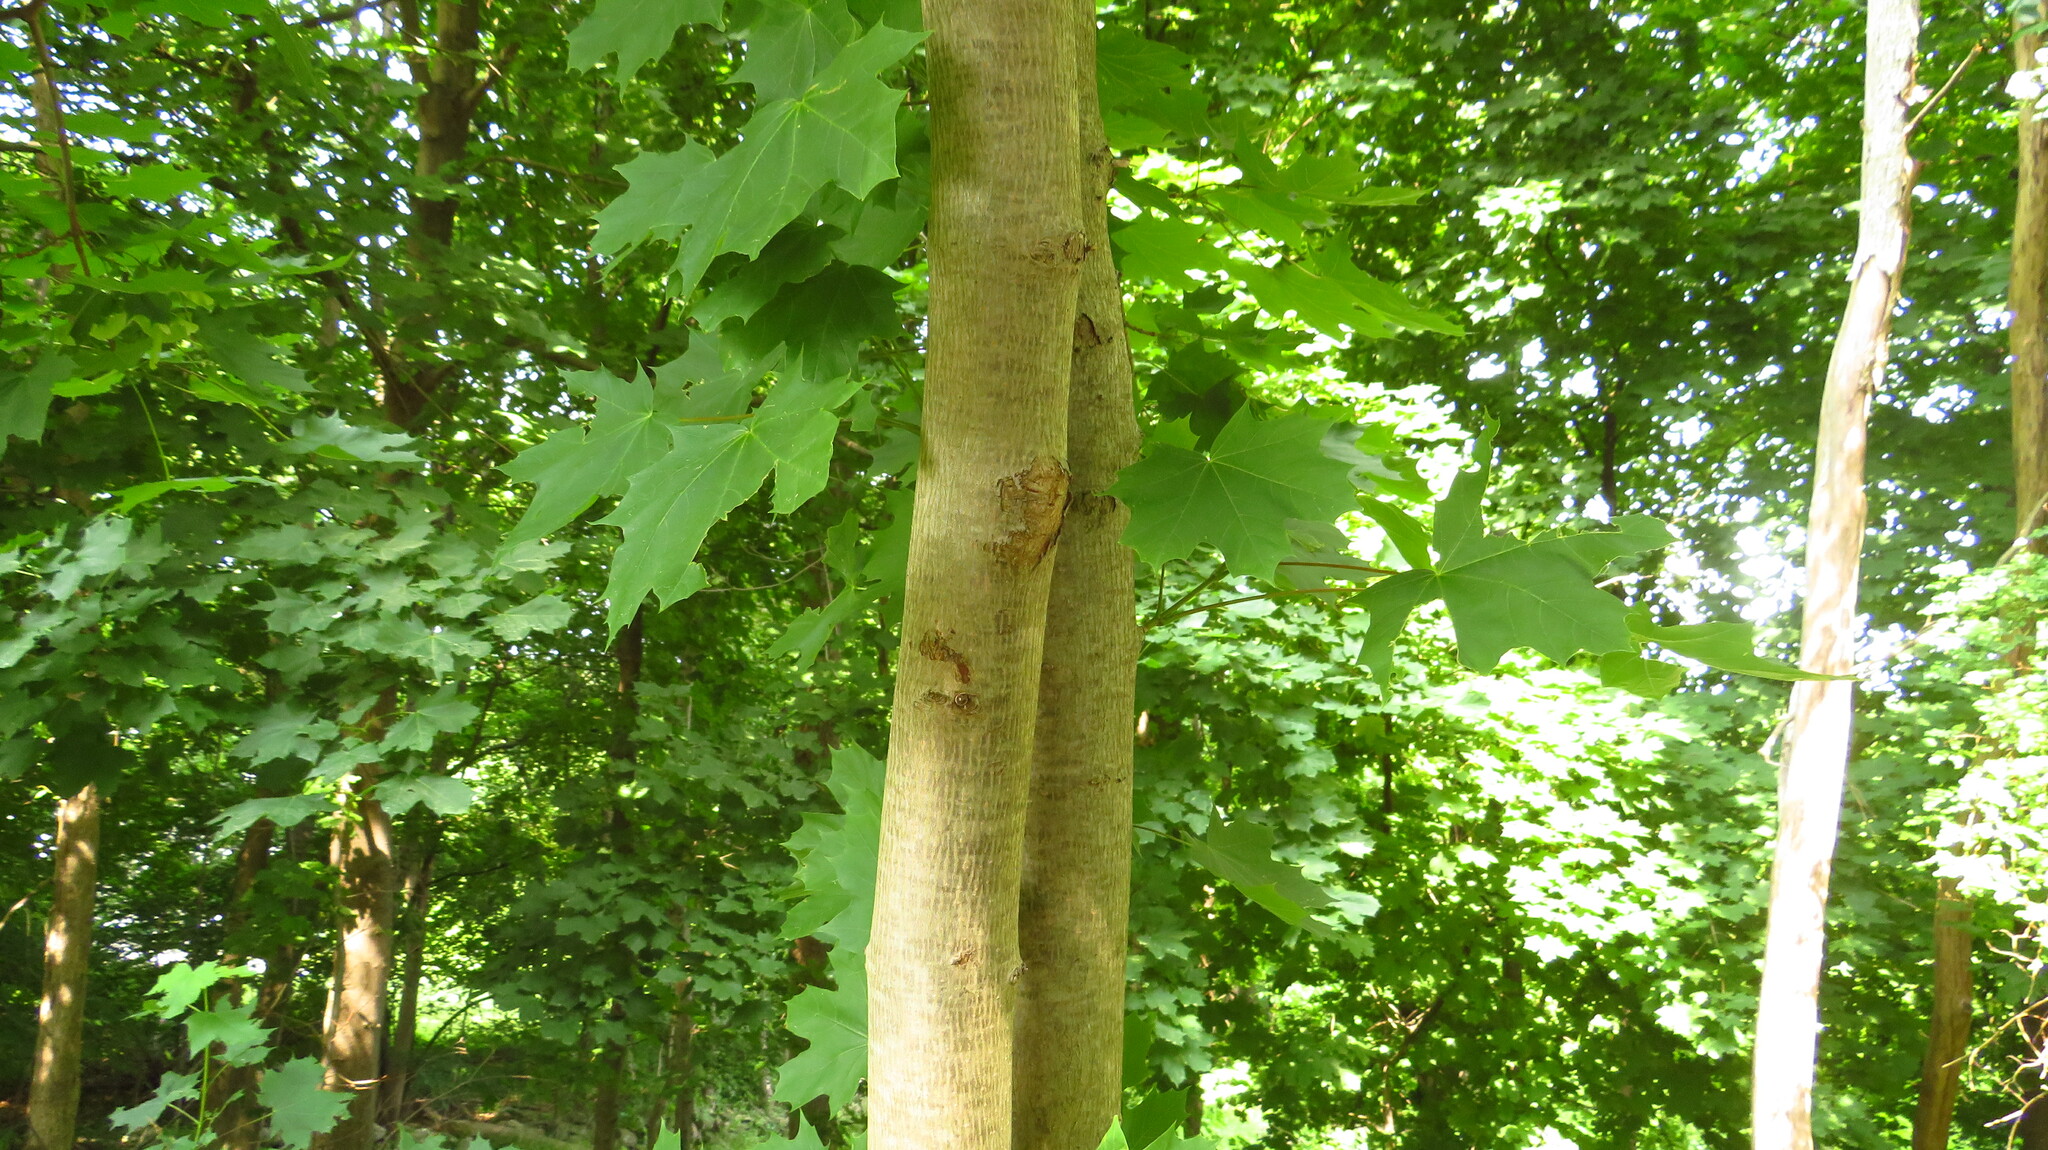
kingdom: Plantae
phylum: Tracheophyta
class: Magnoliopsida
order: Sapindales
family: Sapindaceae
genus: Acer
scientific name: Acer platanoides
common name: Norway maple
